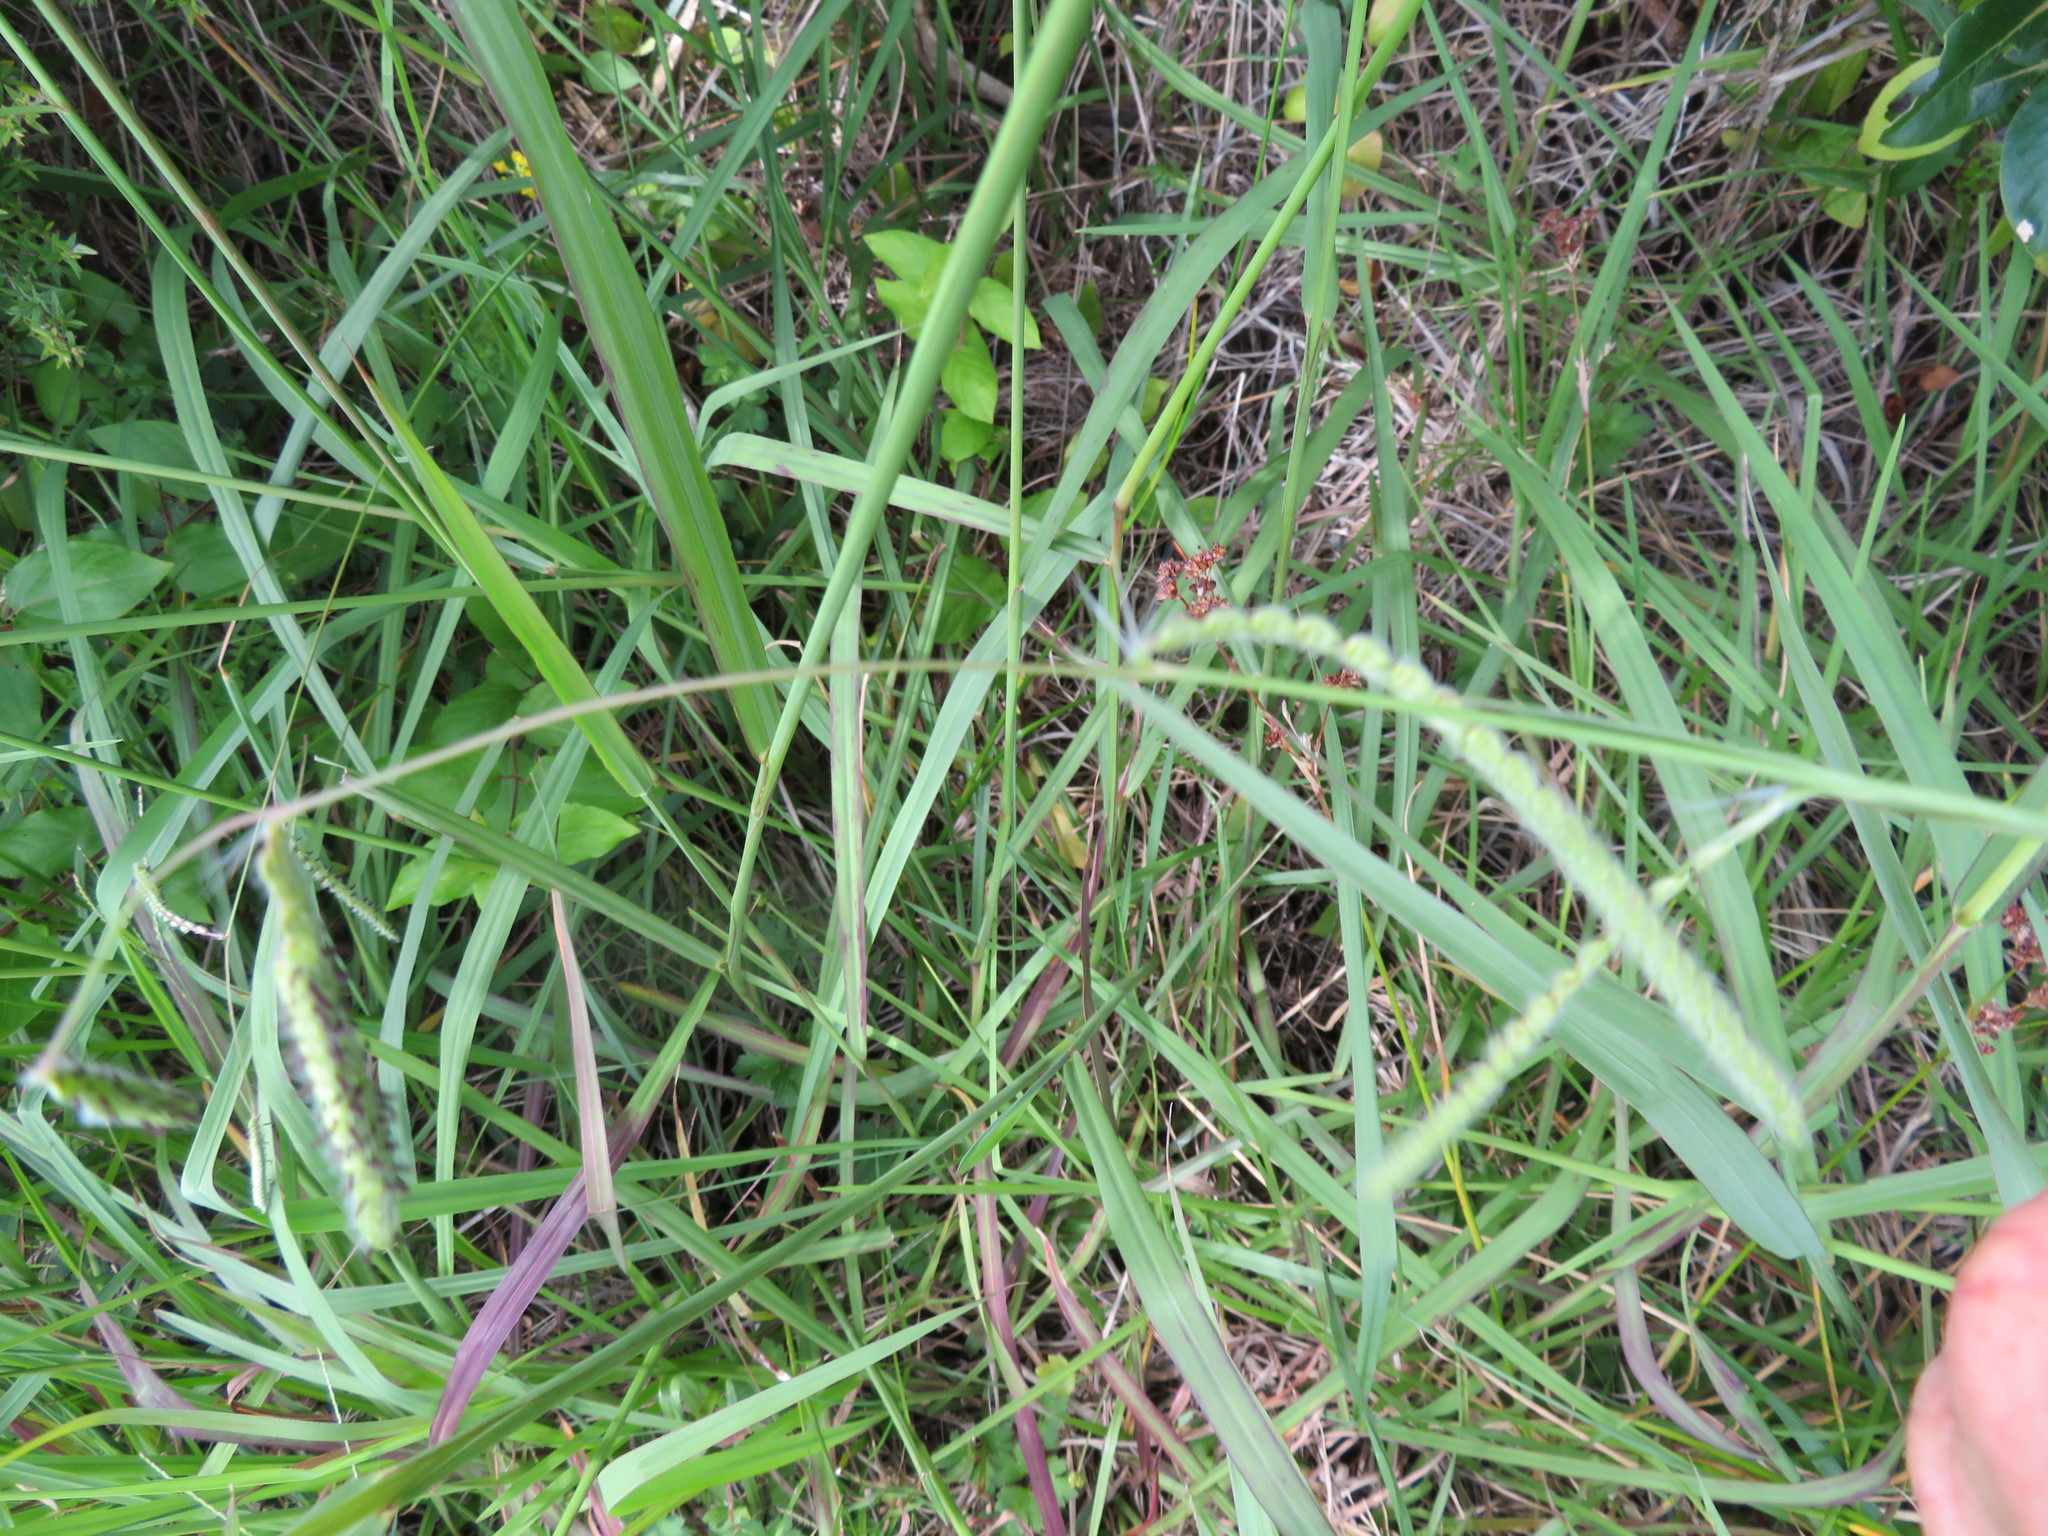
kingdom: Plantae
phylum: Tracheophyta
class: Liliopsida
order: Poales
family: Poaceae
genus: Paspalum
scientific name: Paspalum urvillei
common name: Vasey's grass
